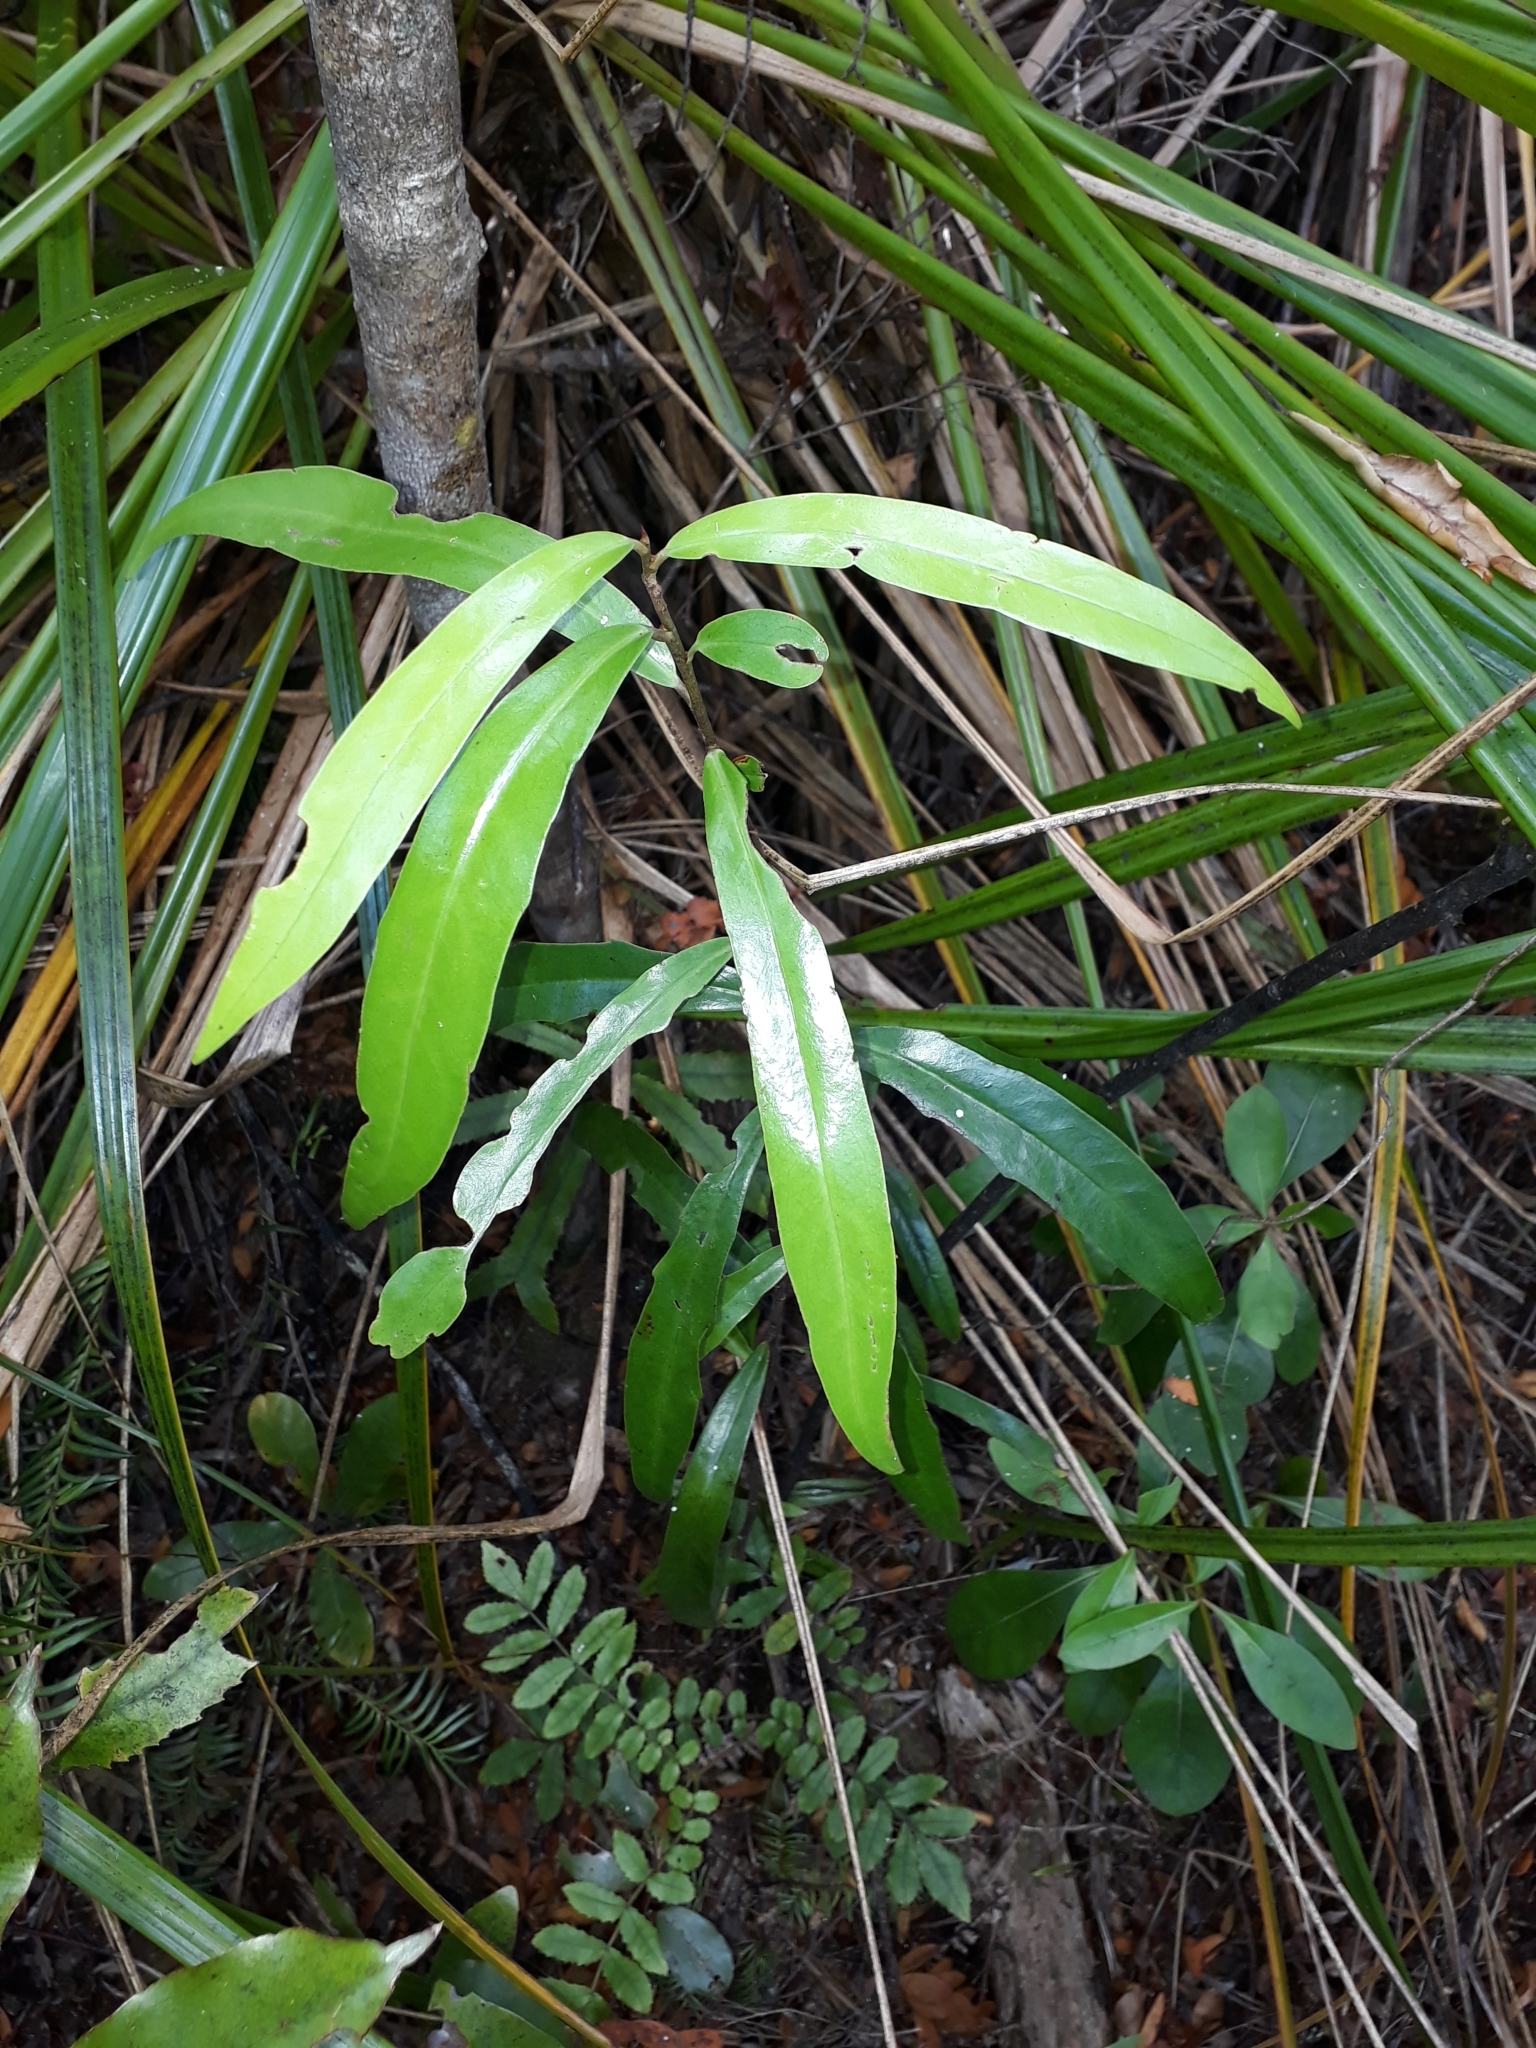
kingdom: Plantae
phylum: Tracheophyta
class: Magnoliopsida
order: Asterales
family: Alseuosmiaceae
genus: Alseuosmia
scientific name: Alseuosmia macrophylla
